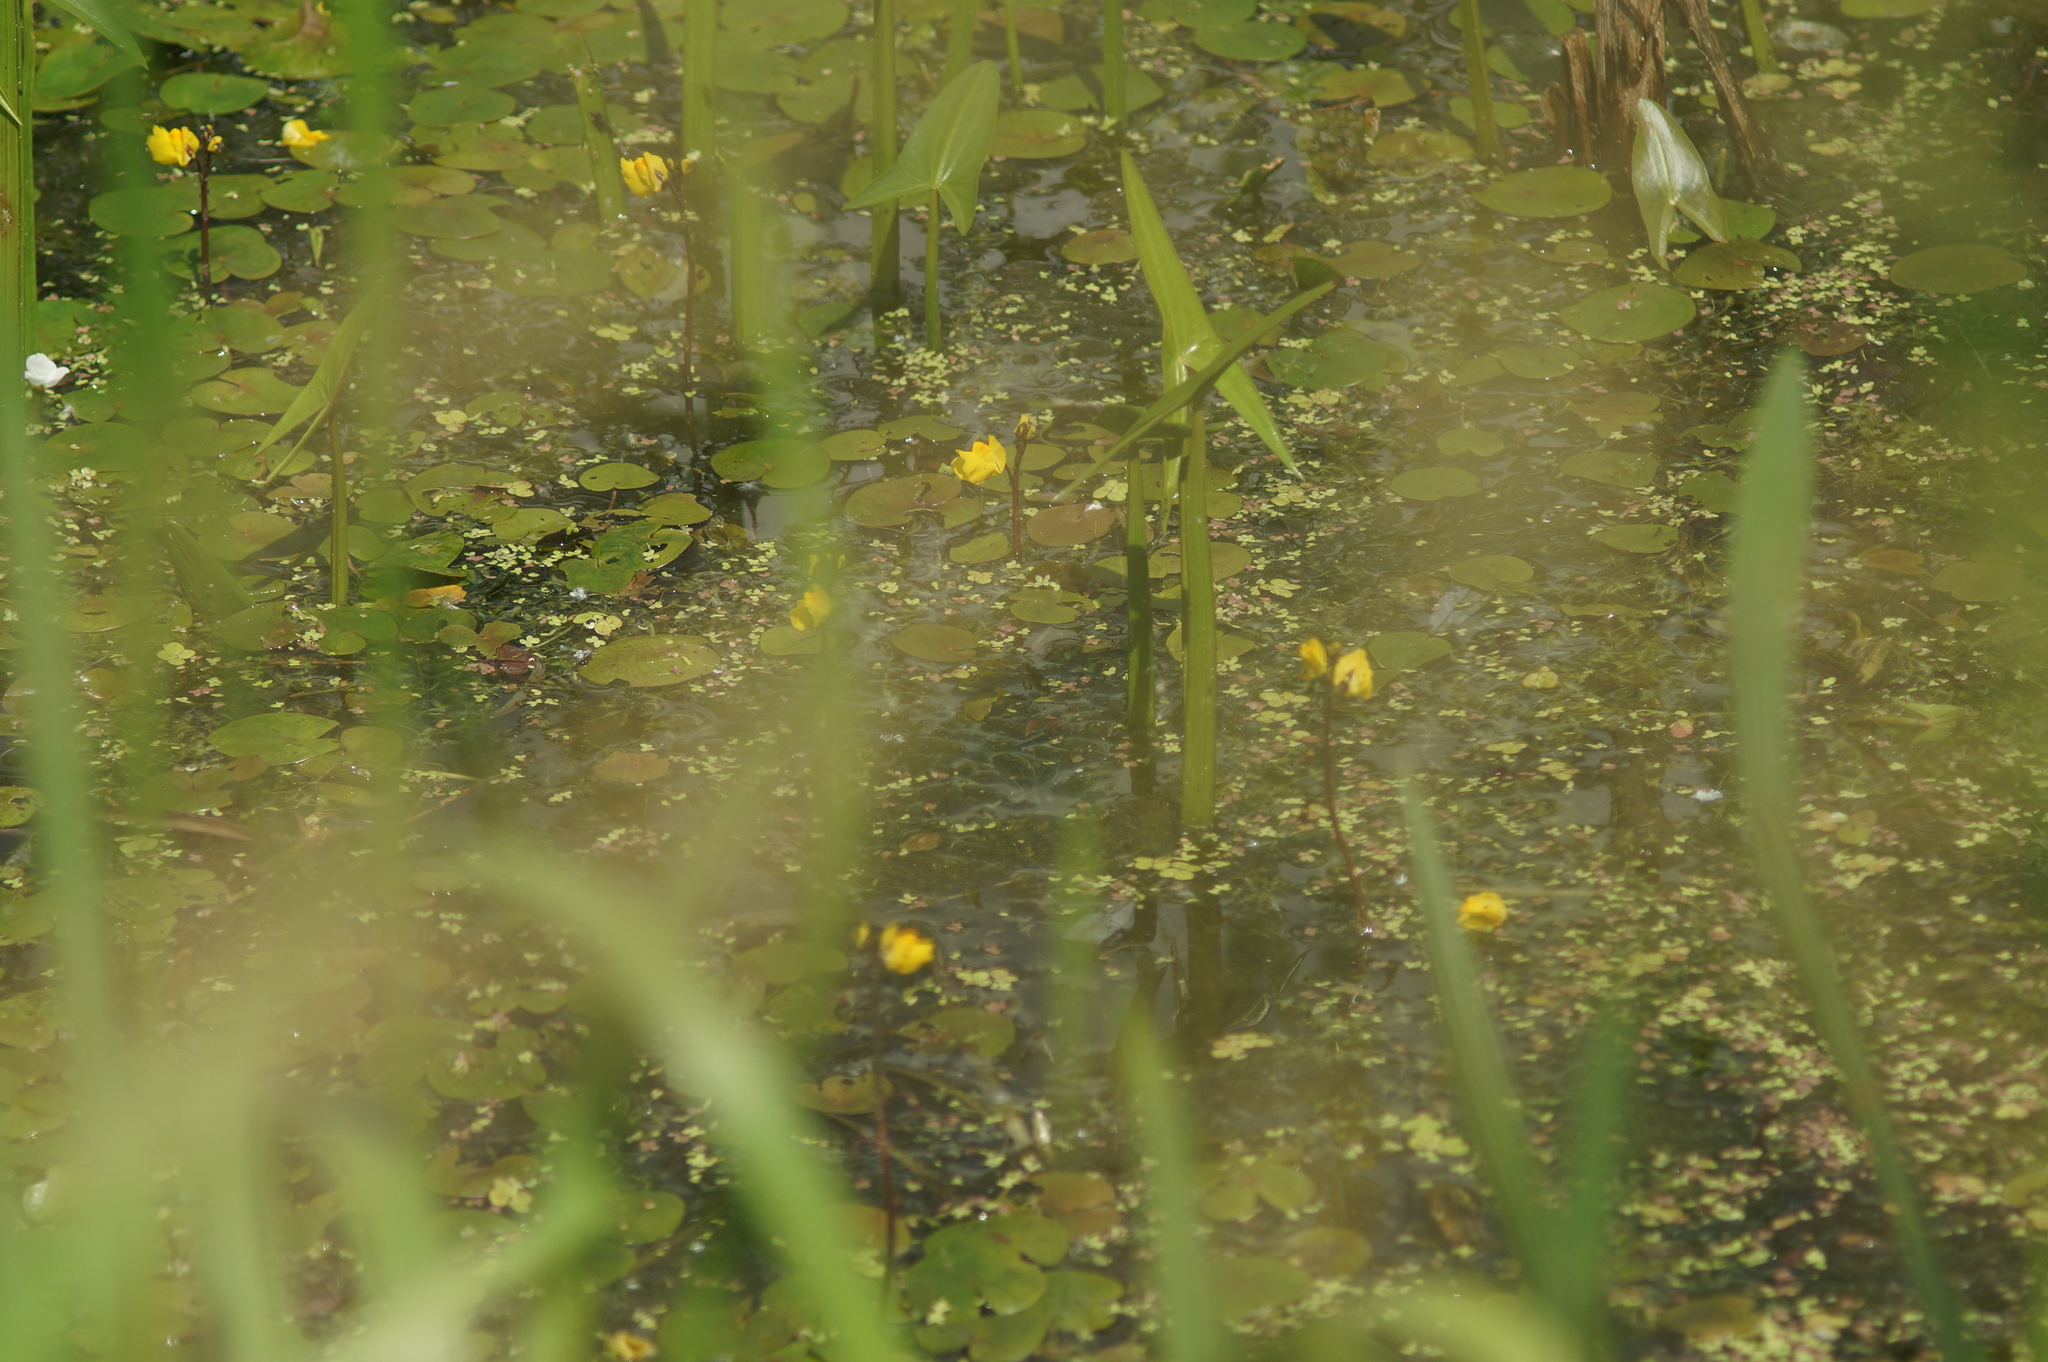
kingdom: Plantae
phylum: Tracheophyta
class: Liliopsida
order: Alismatales
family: Alismataceae
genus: Sagittaria
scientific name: Sagittaria sagittifolia
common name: Arrowhead
